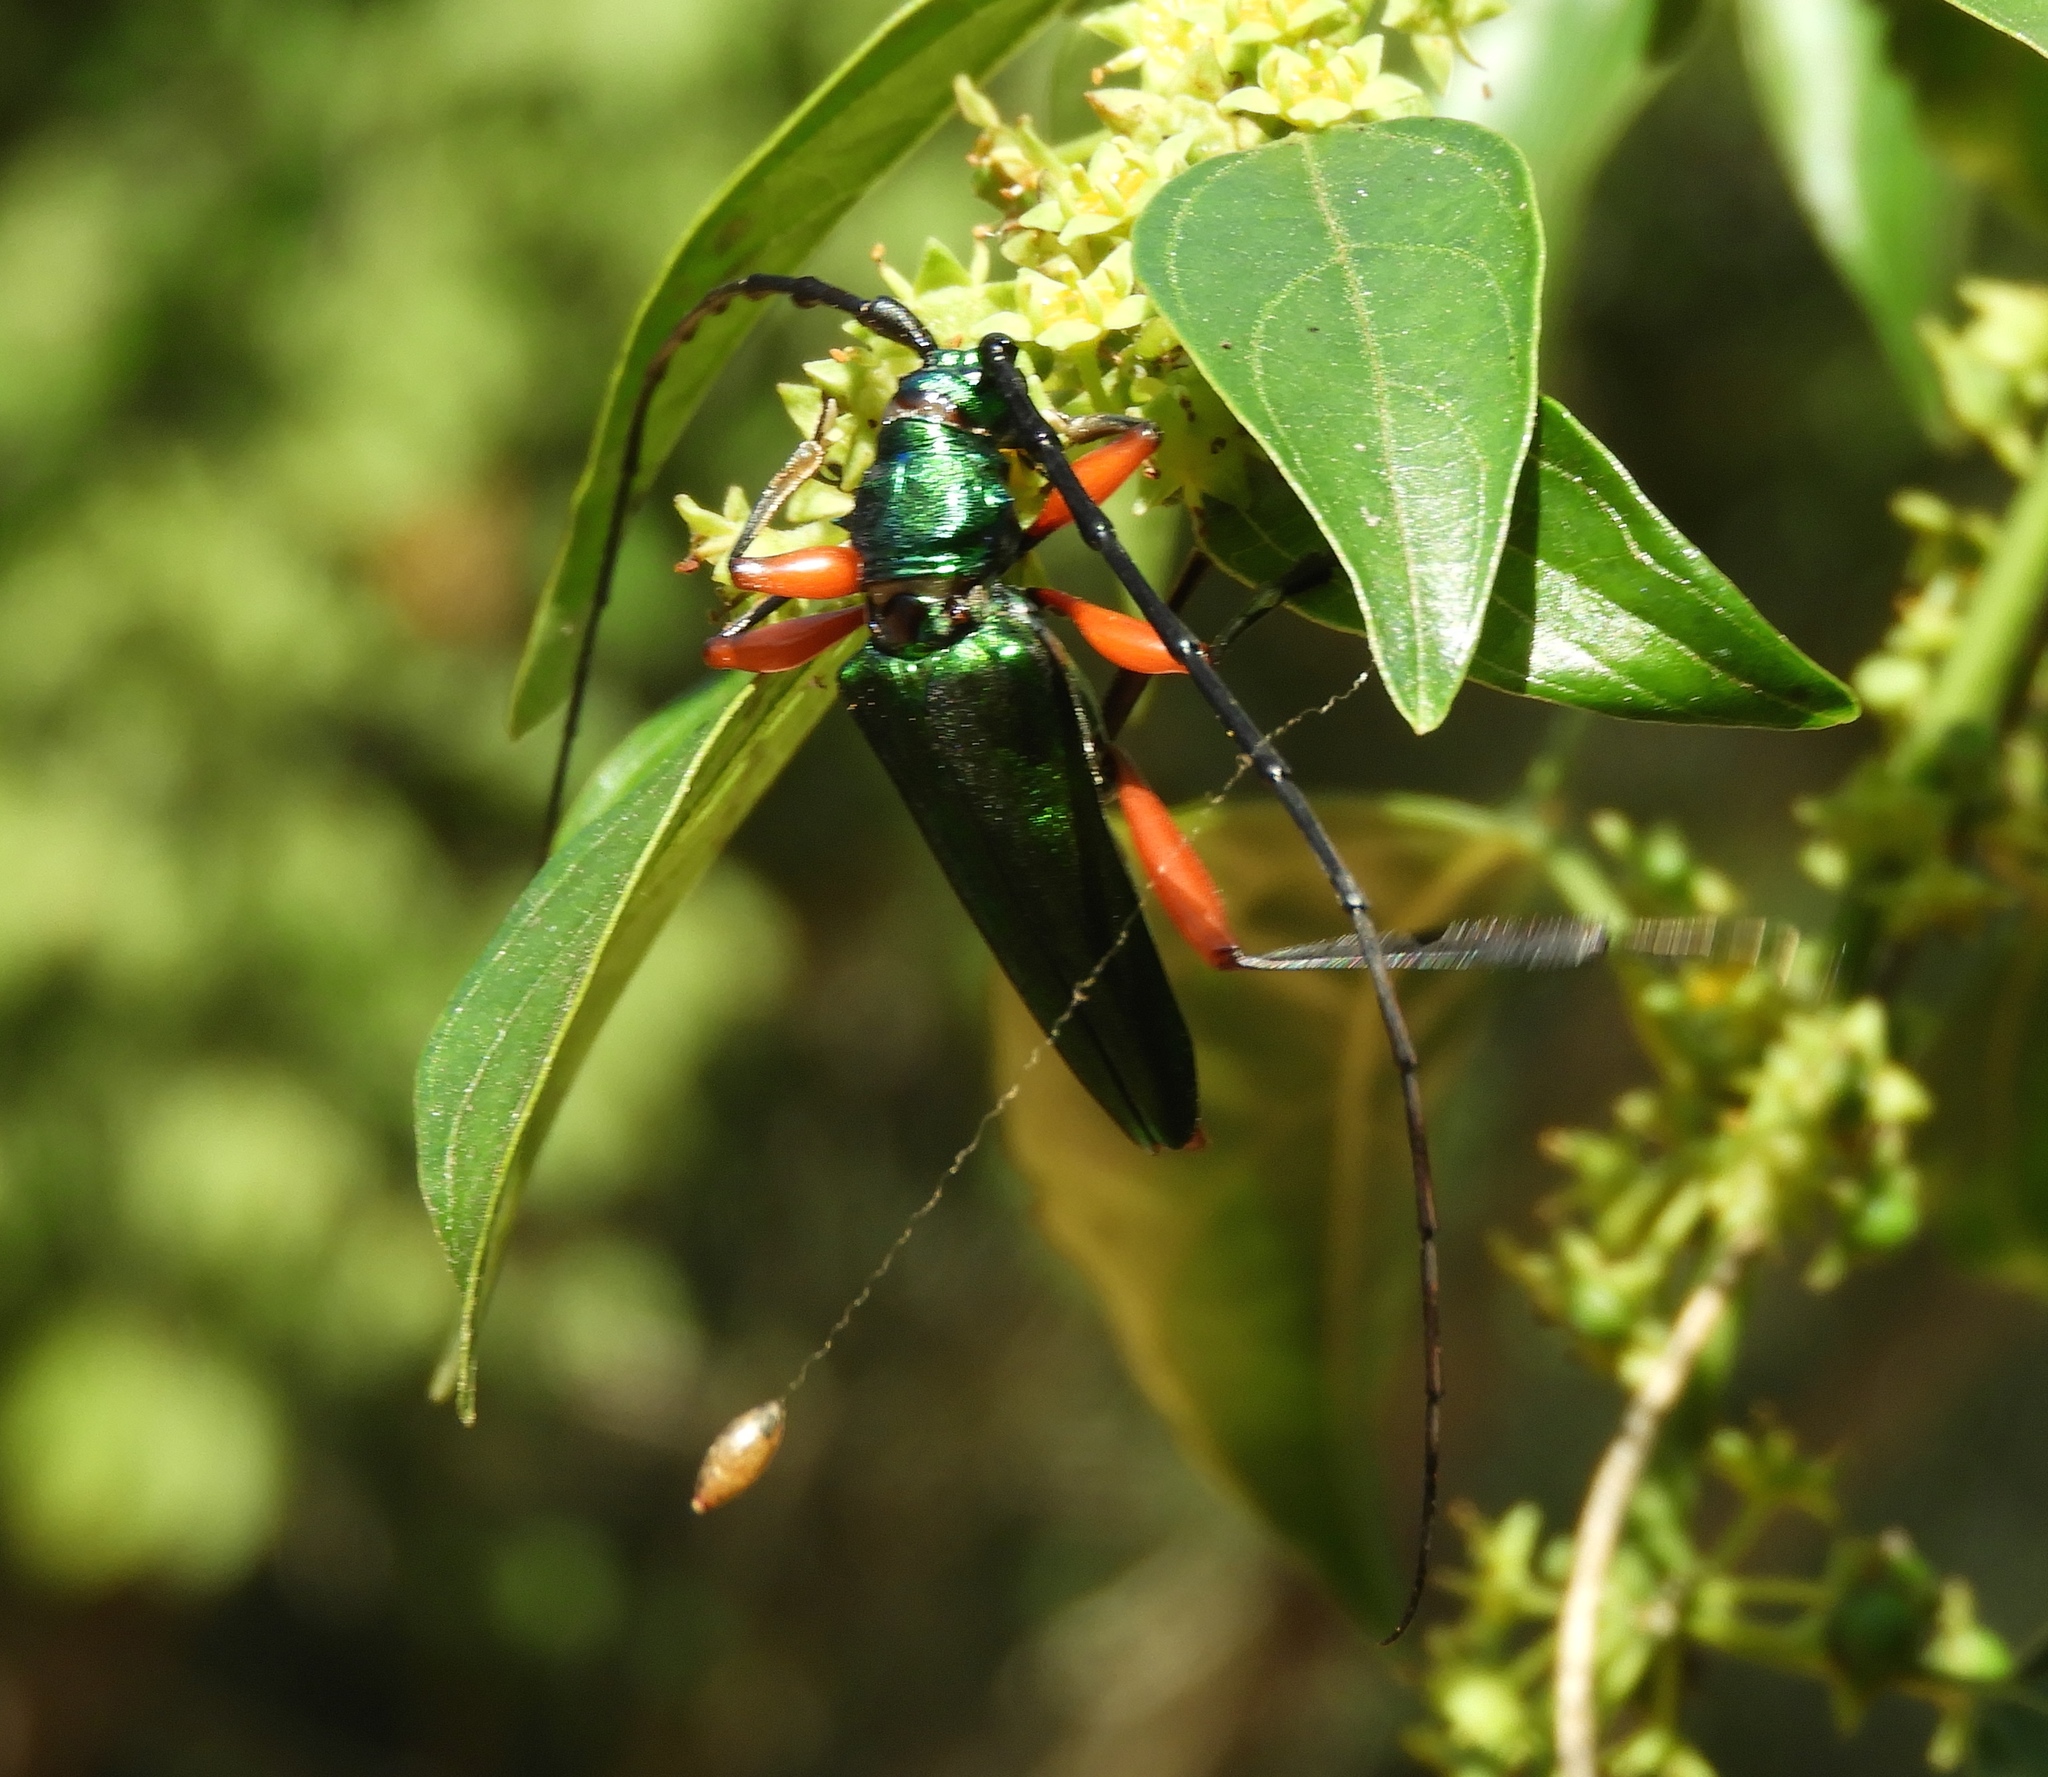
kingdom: Animalia
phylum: Arthropoda
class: Insecta
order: Coleoptera
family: Cerambycidae
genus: Plinthocoelium
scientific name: Plinthocoelium chilensis
